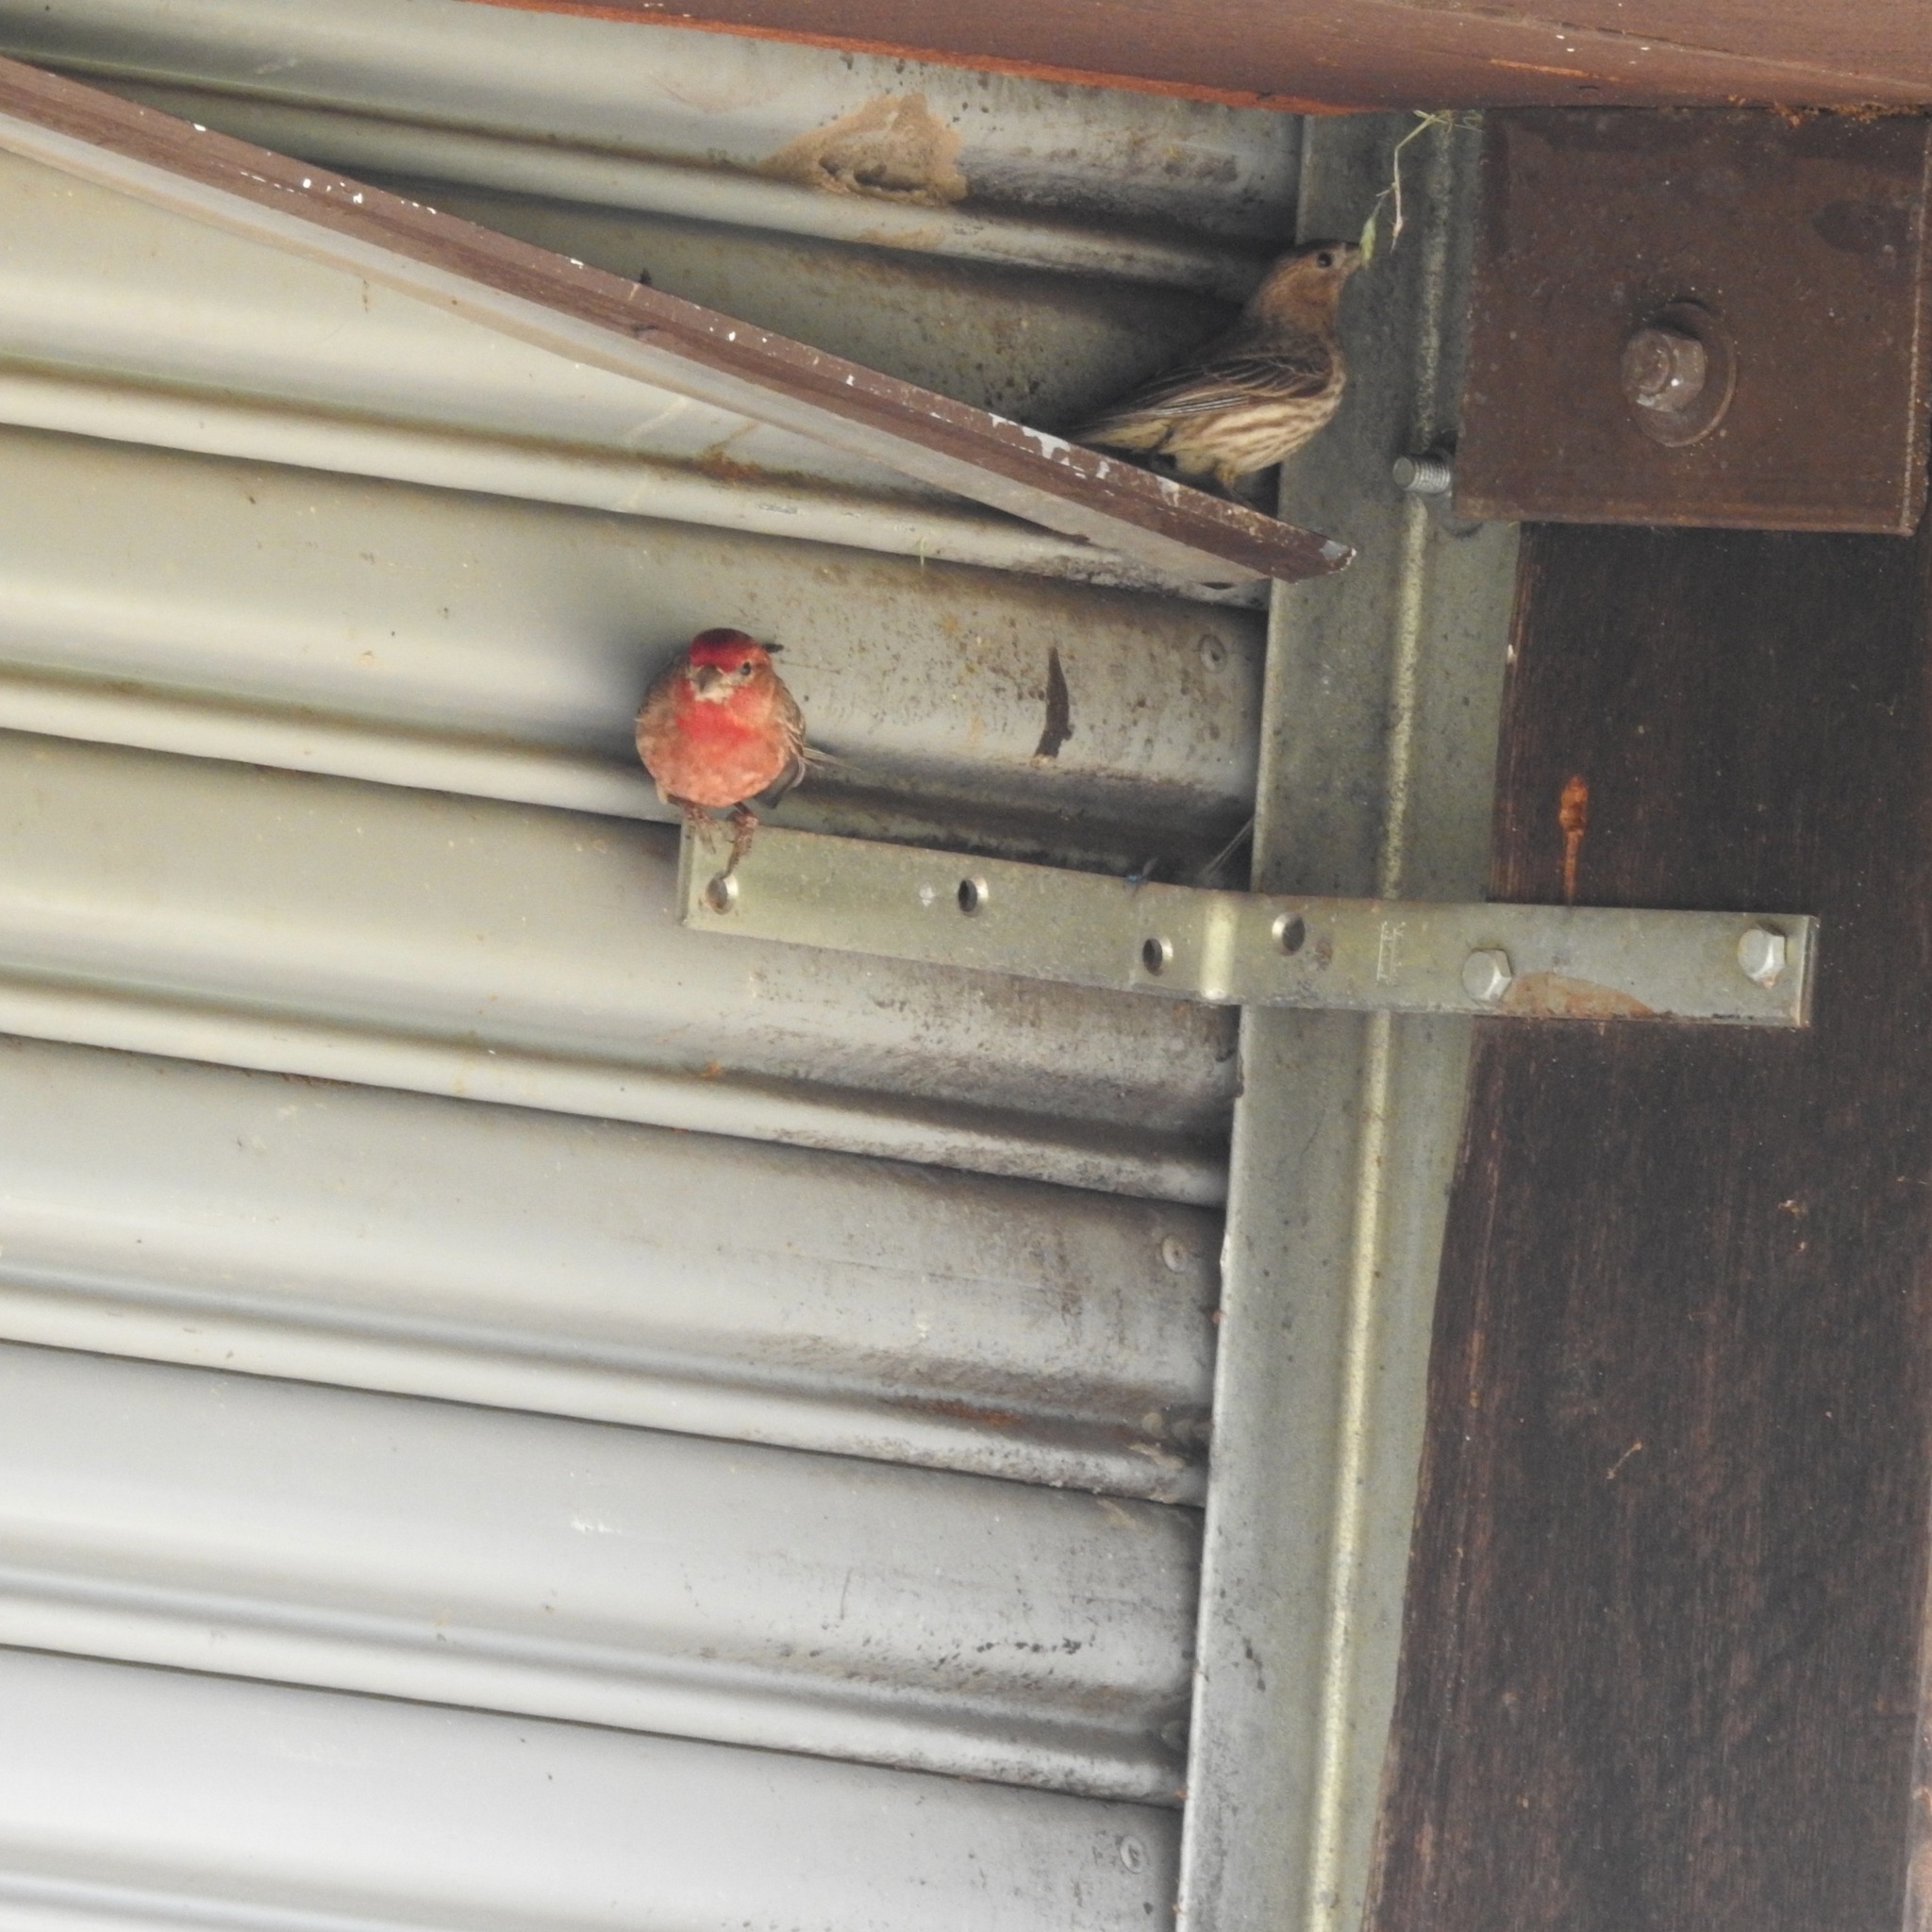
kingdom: Animalia
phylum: Chordata
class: Aves
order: Passeriformes
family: Fringillidae
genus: Haemorhous
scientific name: Haemorhous mexicanus
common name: House finch
